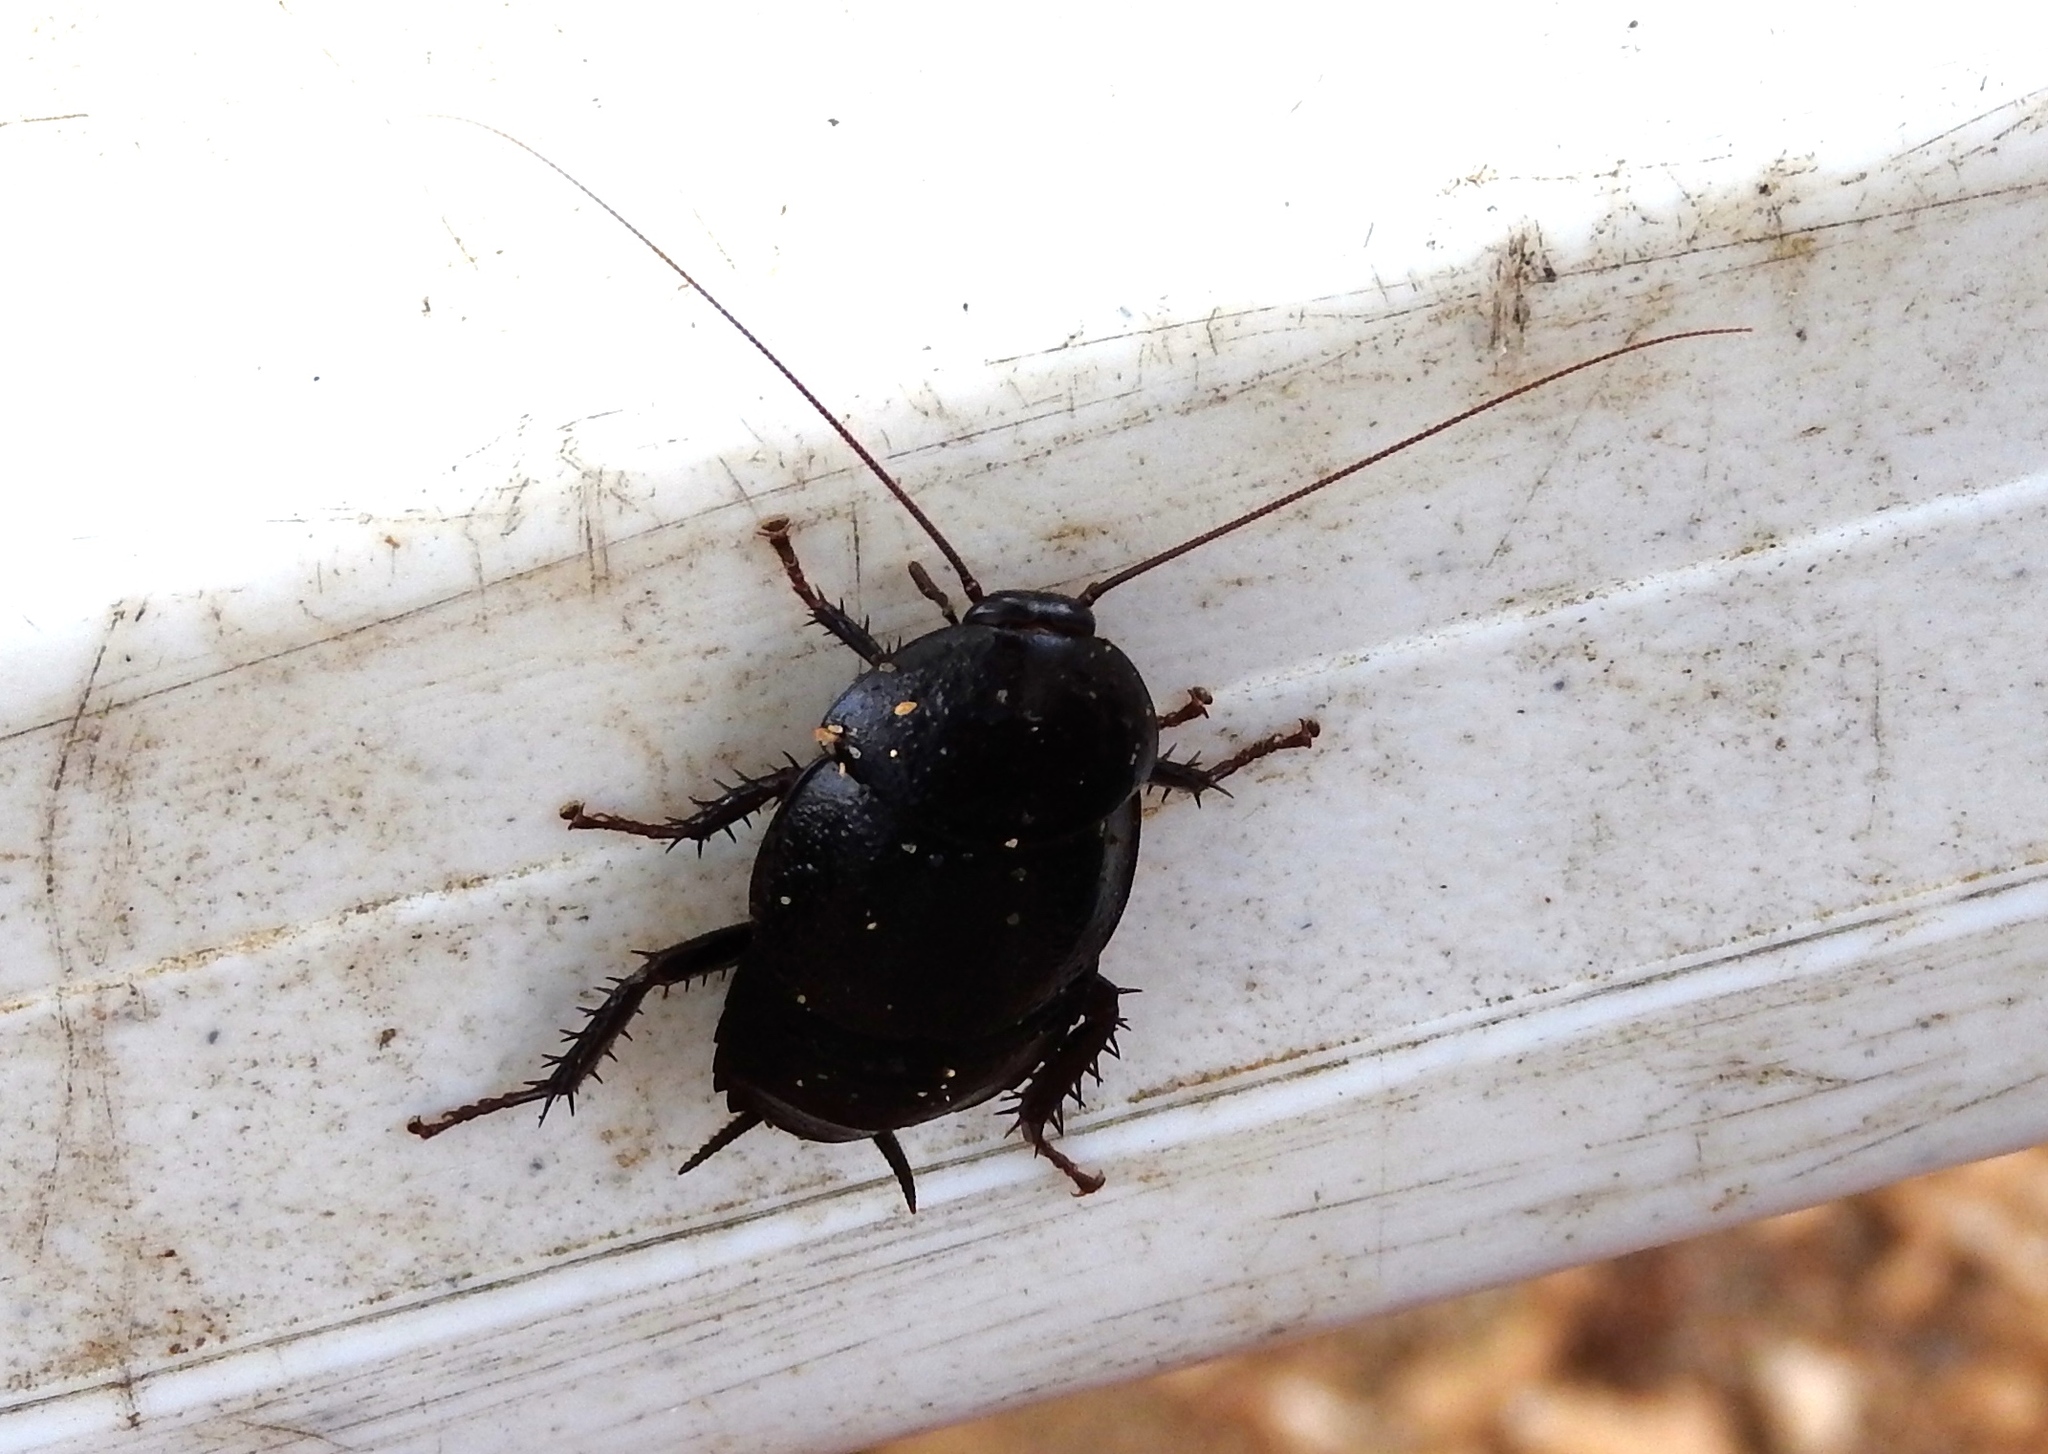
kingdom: Animalia
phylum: Arthropoda
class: Insecta
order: Blattodea
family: Ectobiidae
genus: Nyctibora
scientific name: Nyctibora tetrasticta
